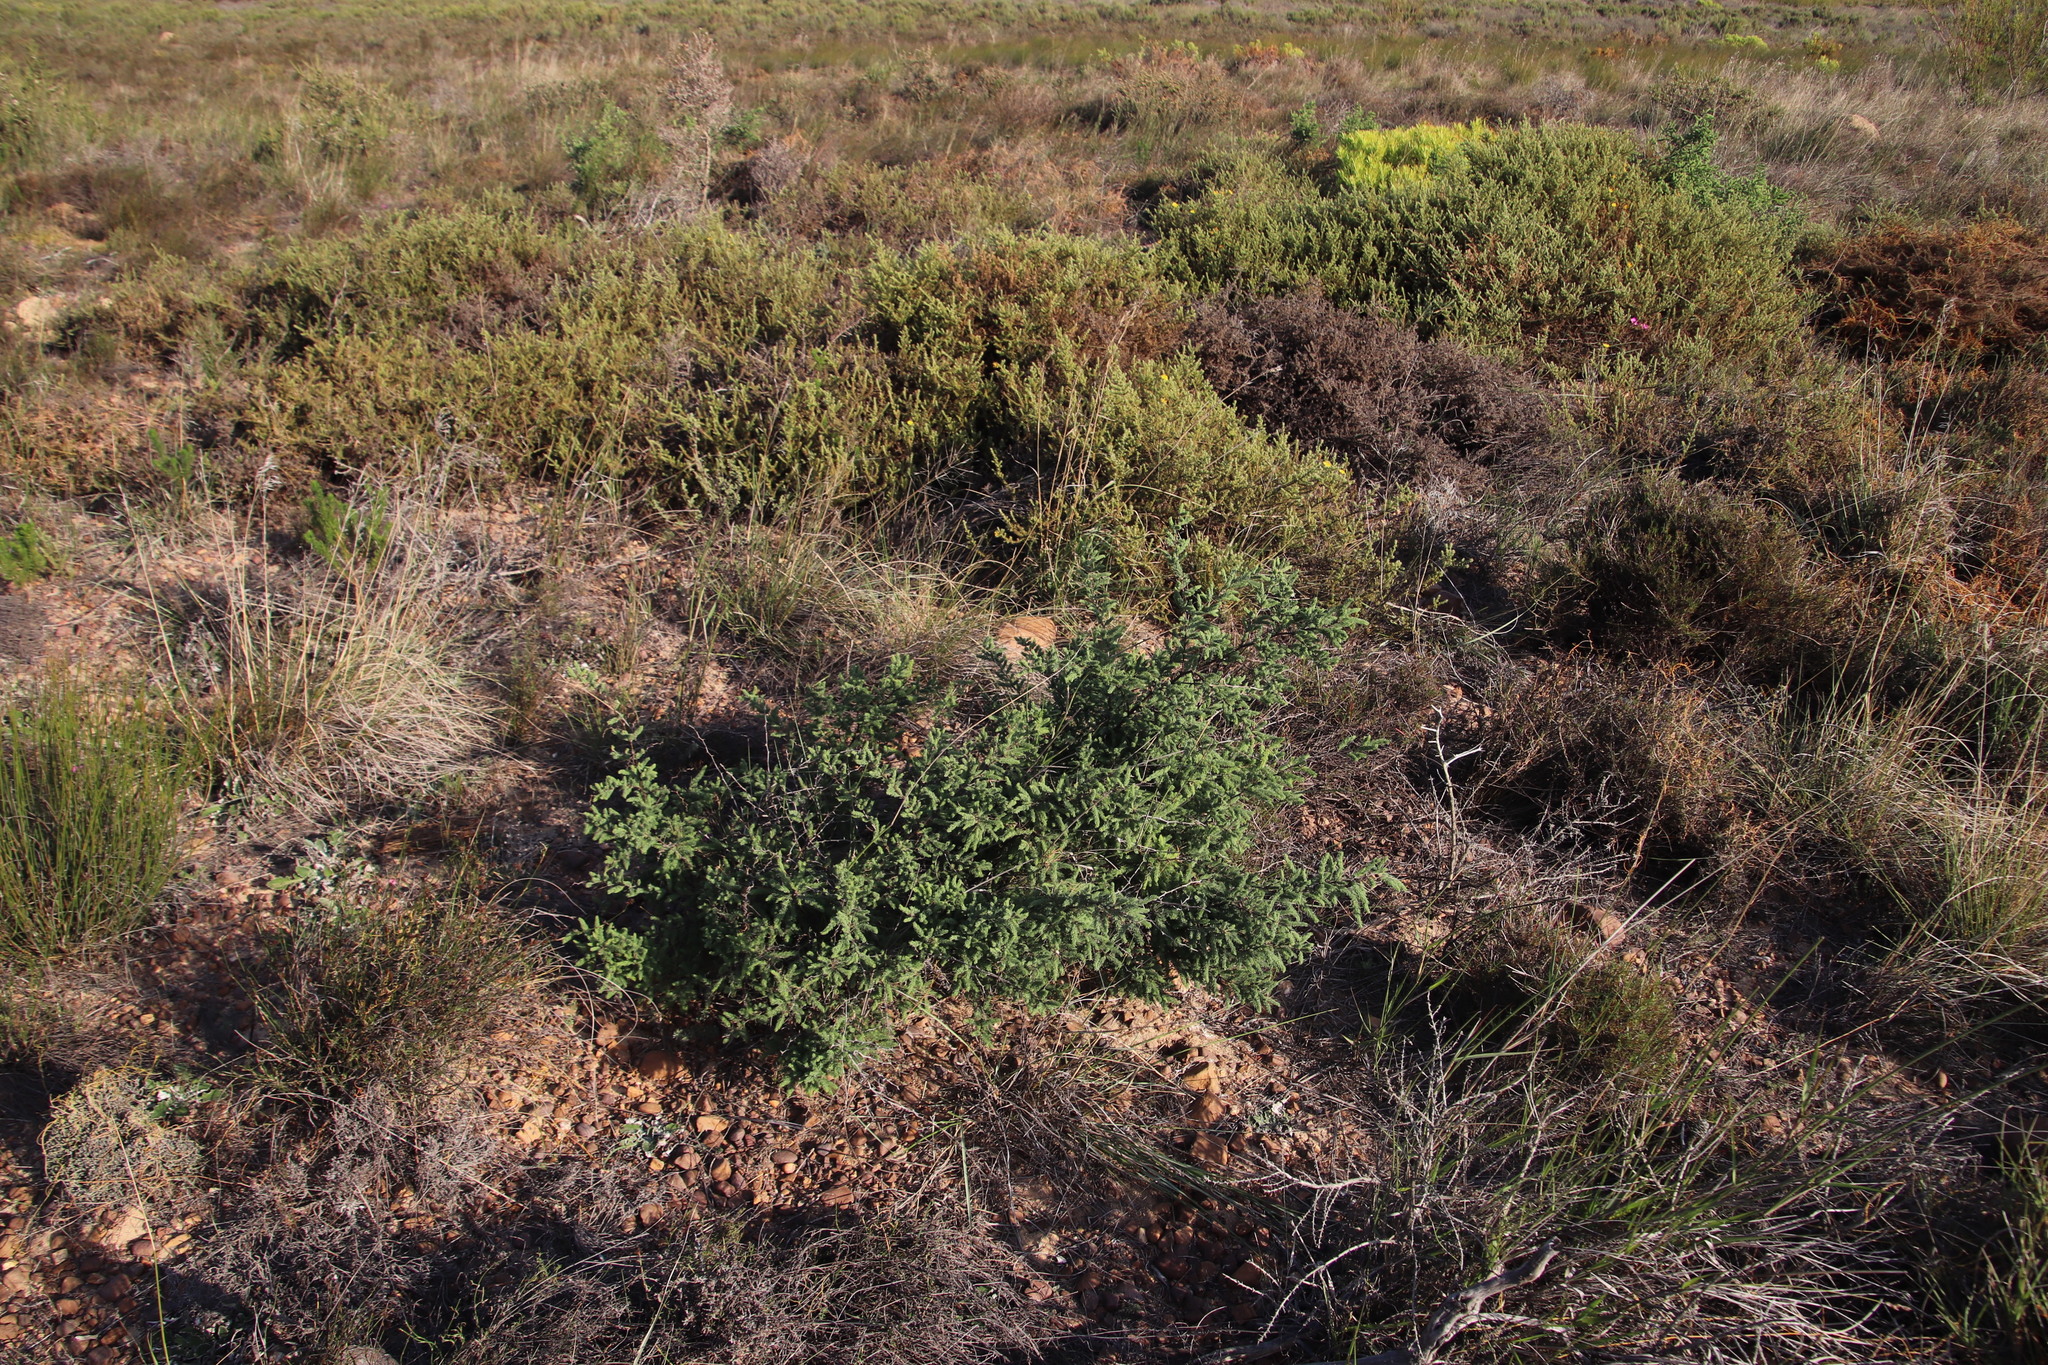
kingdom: Plantae
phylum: Tracheophyta
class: Liliopsida
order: Asparagales
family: Asparagaceae
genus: Asparagus
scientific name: Asparagus rubicundus
